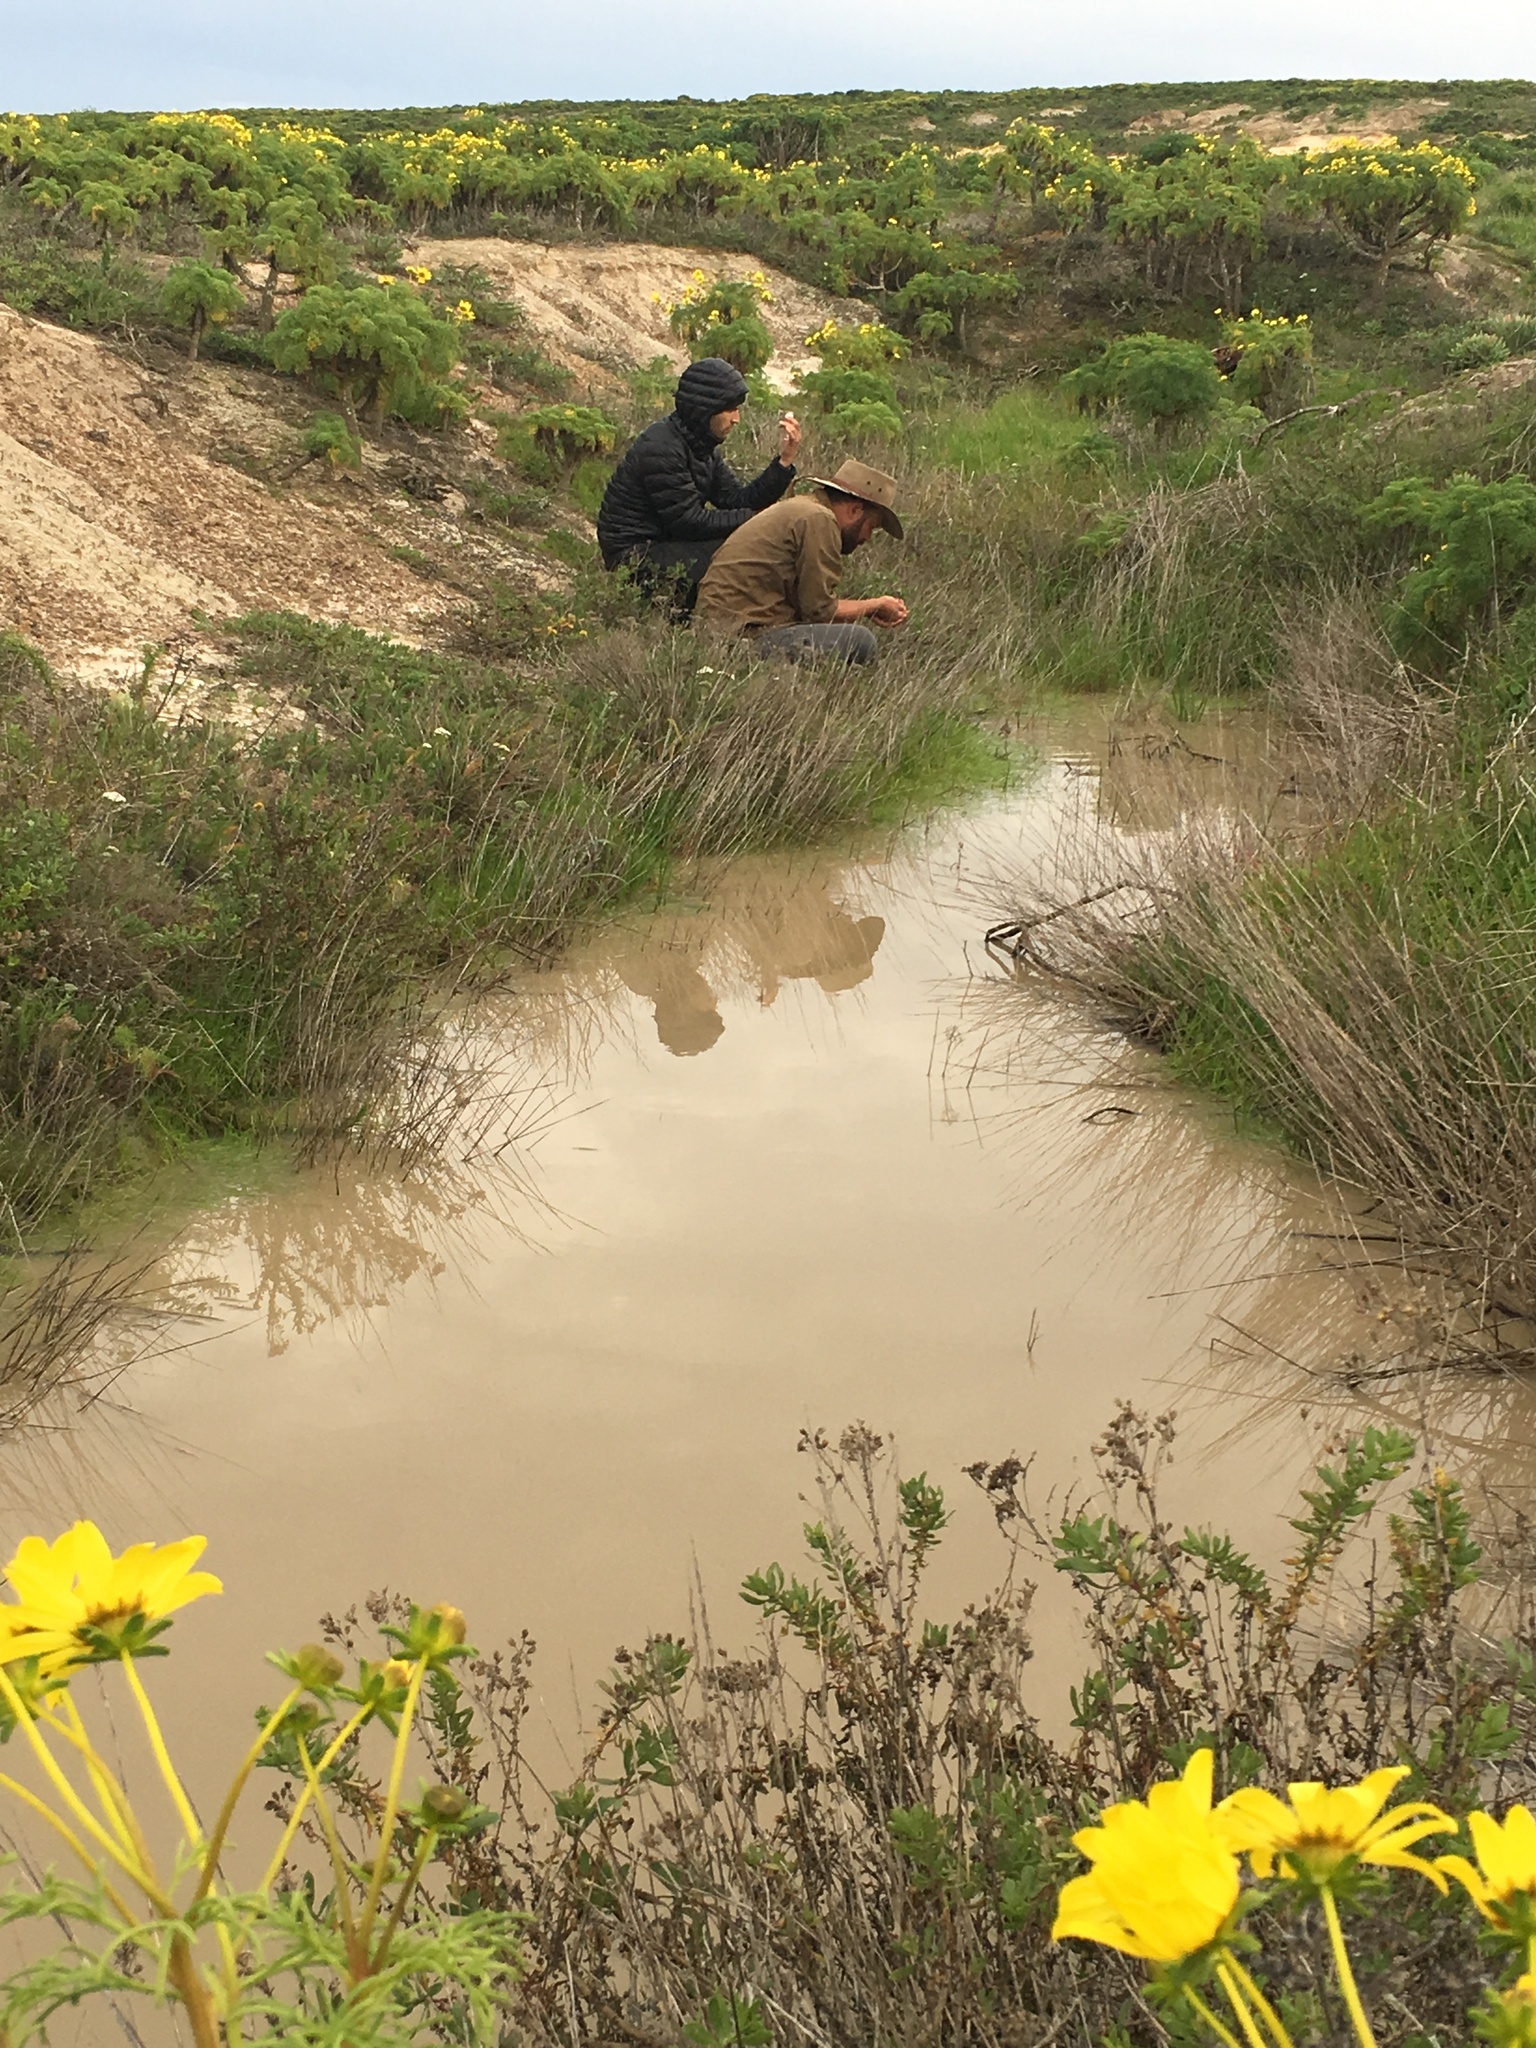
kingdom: Plantae
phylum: Tracheophyta
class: Magnoliopsida
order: Asterales
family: Asteraceae
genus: Coreopsis
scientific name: Coreopsis gigantea
